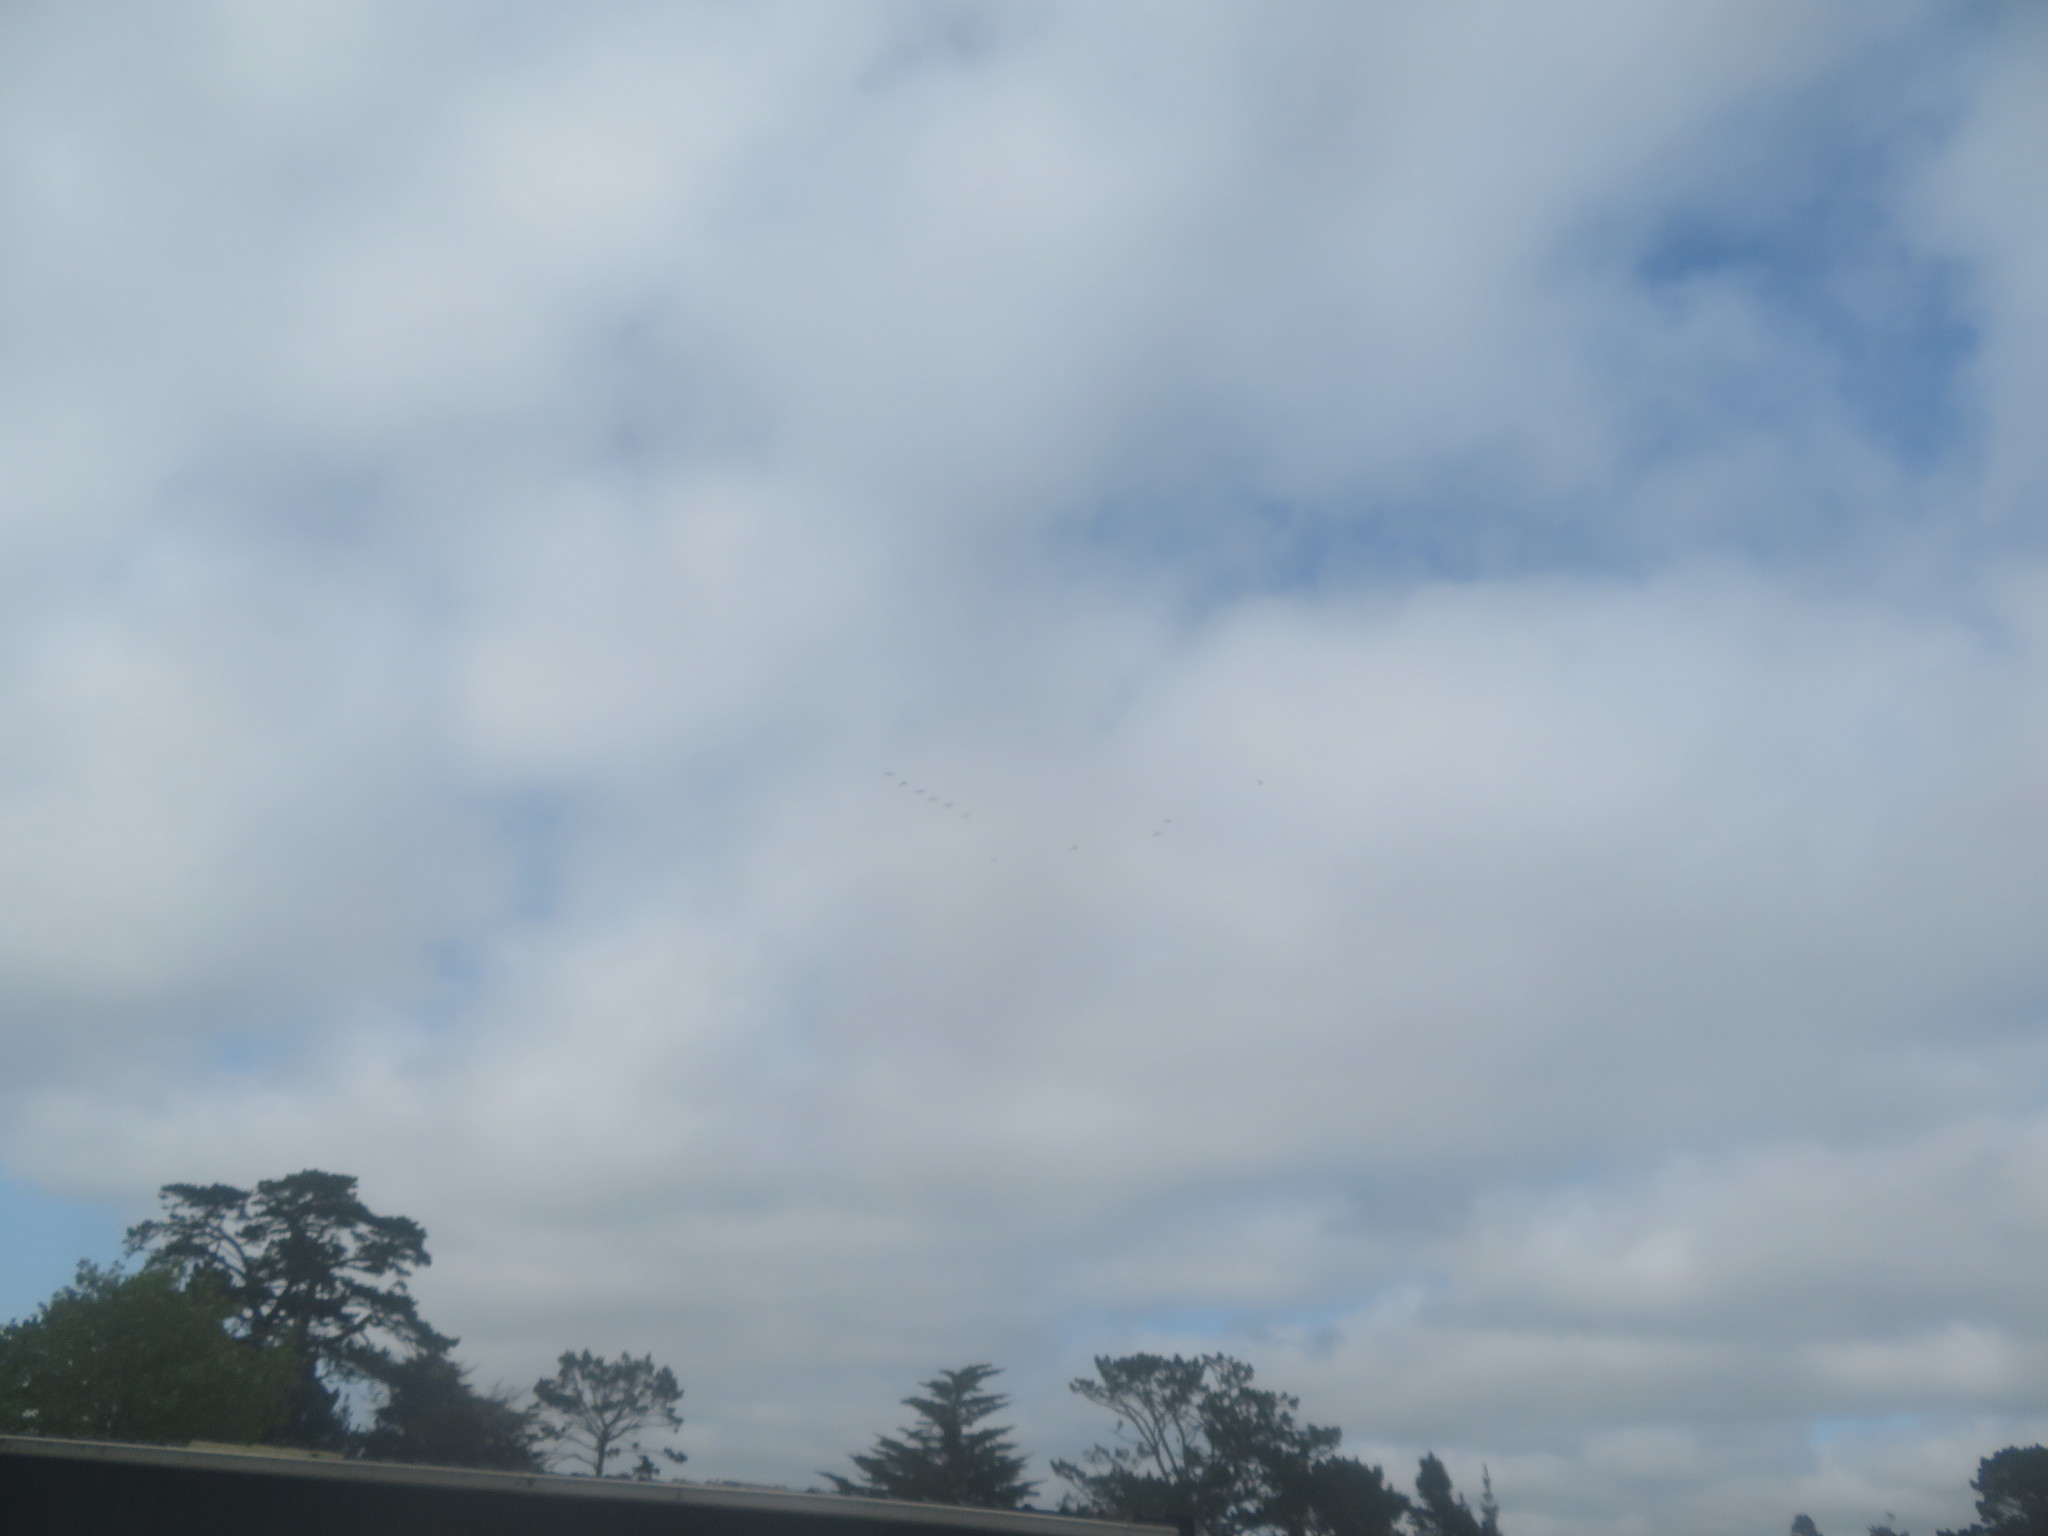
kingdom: Animalia
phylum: Chordata
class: Aves
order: Anseriformes
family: Anatidae
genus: Branta
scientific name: Branta canadensis
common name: Canada goose
